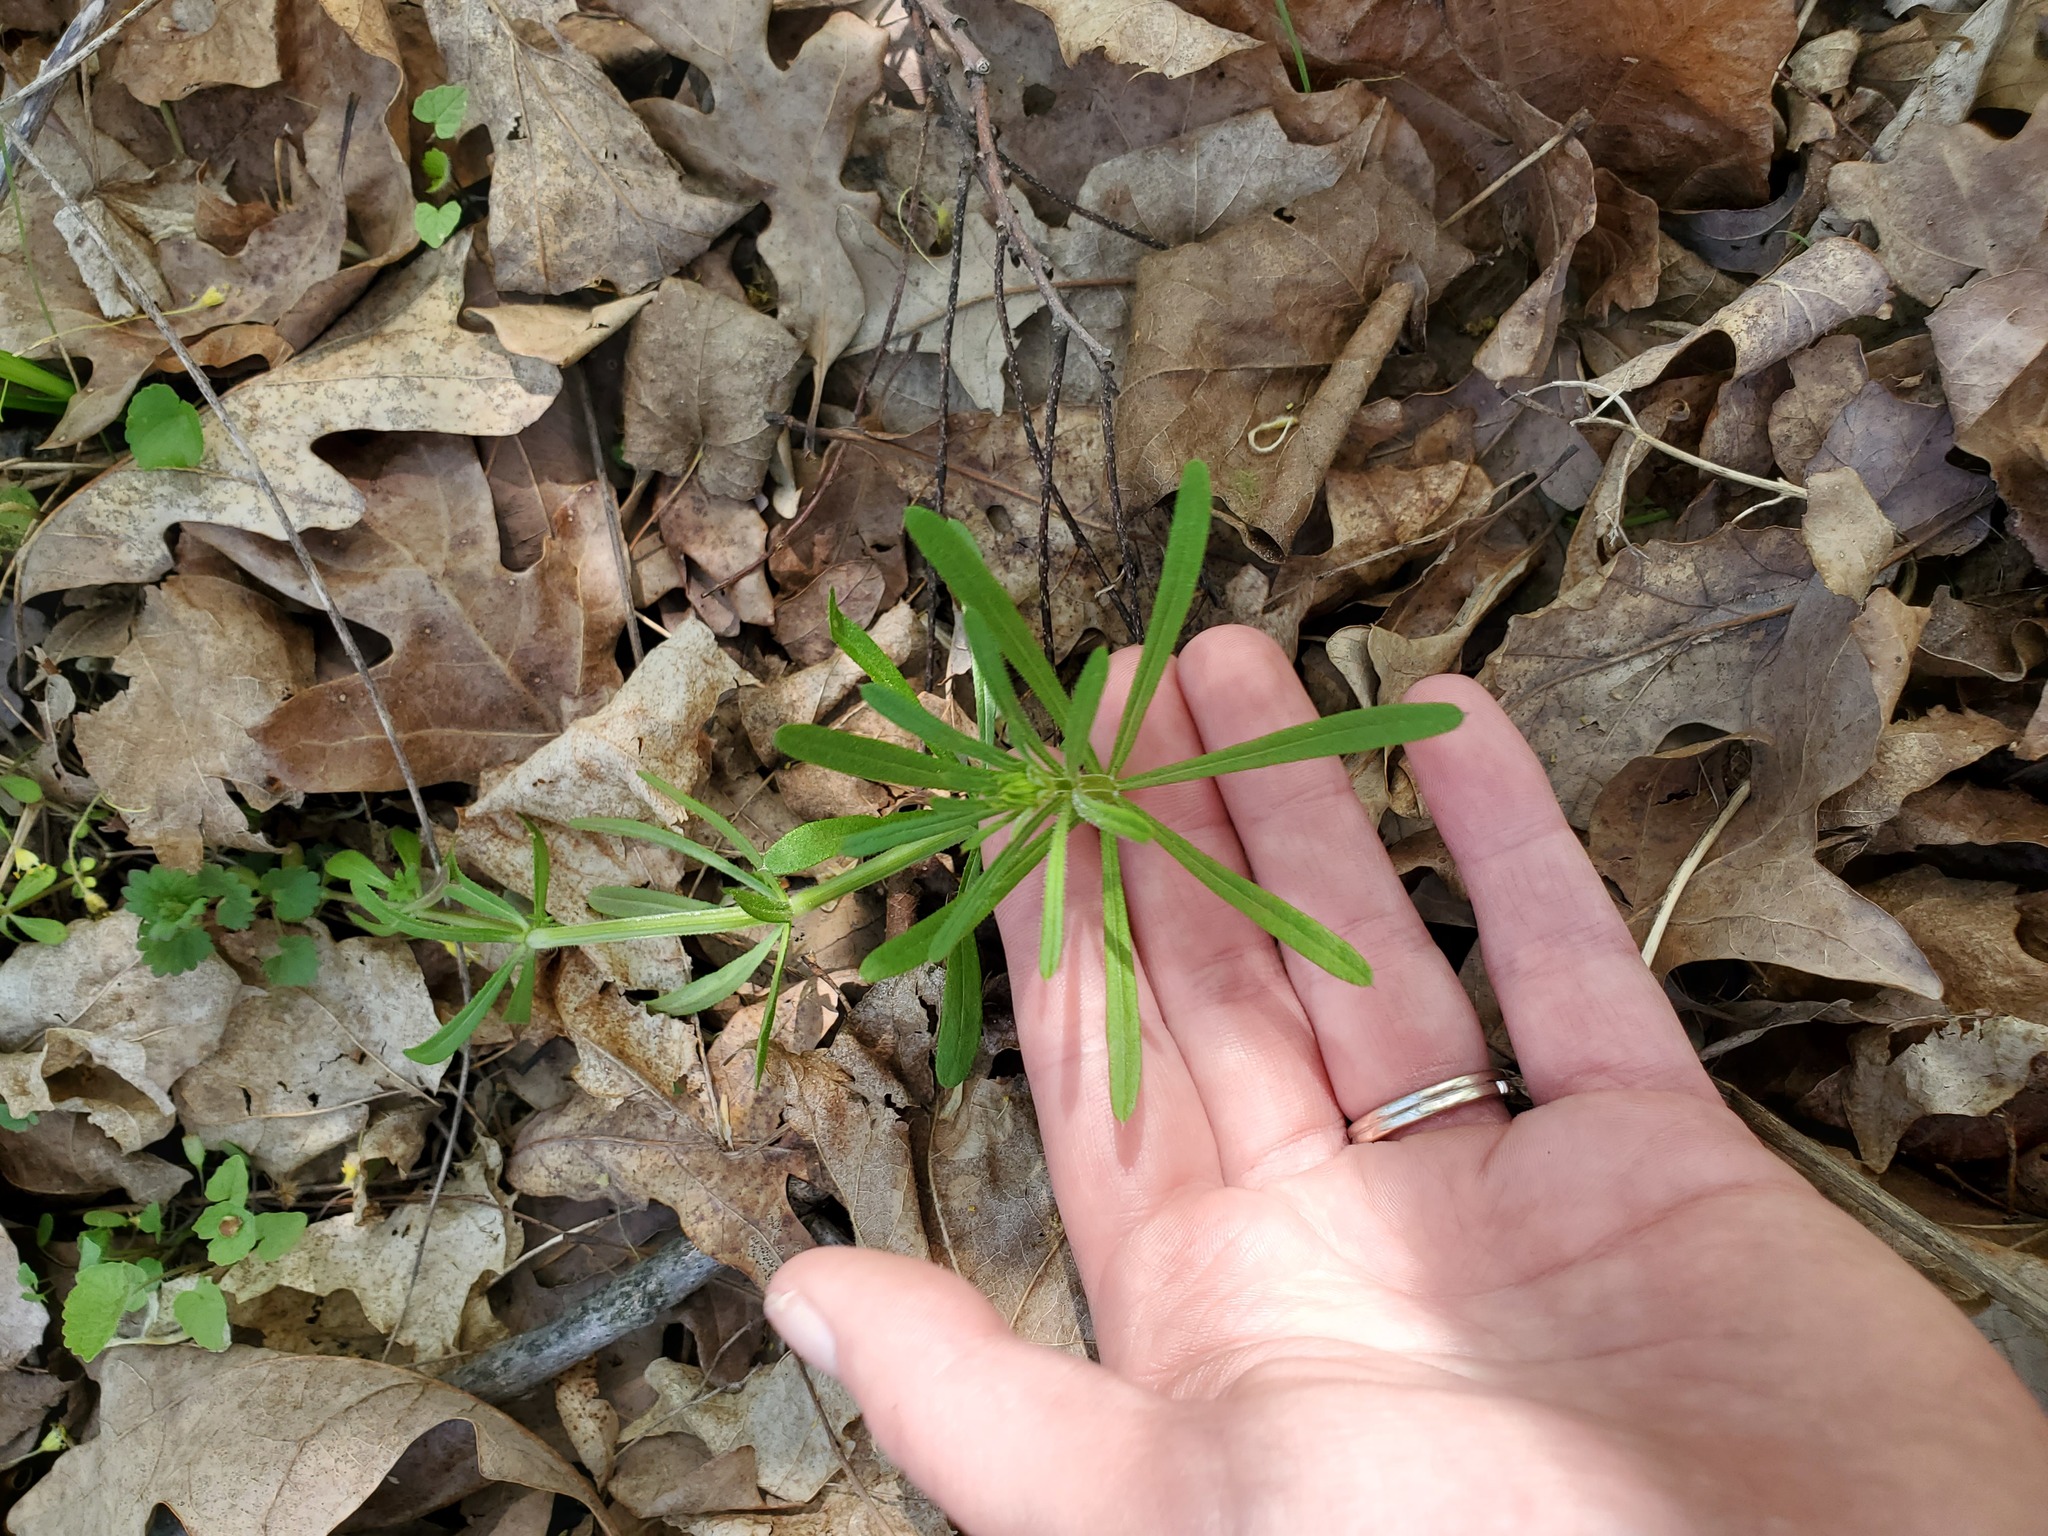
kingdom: Plantae
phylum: Tracheophyta
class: Magnoliopsida
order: Gentianales
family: Rubiaceae
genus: Galium
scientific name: Galium aparine
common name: Cleavers
